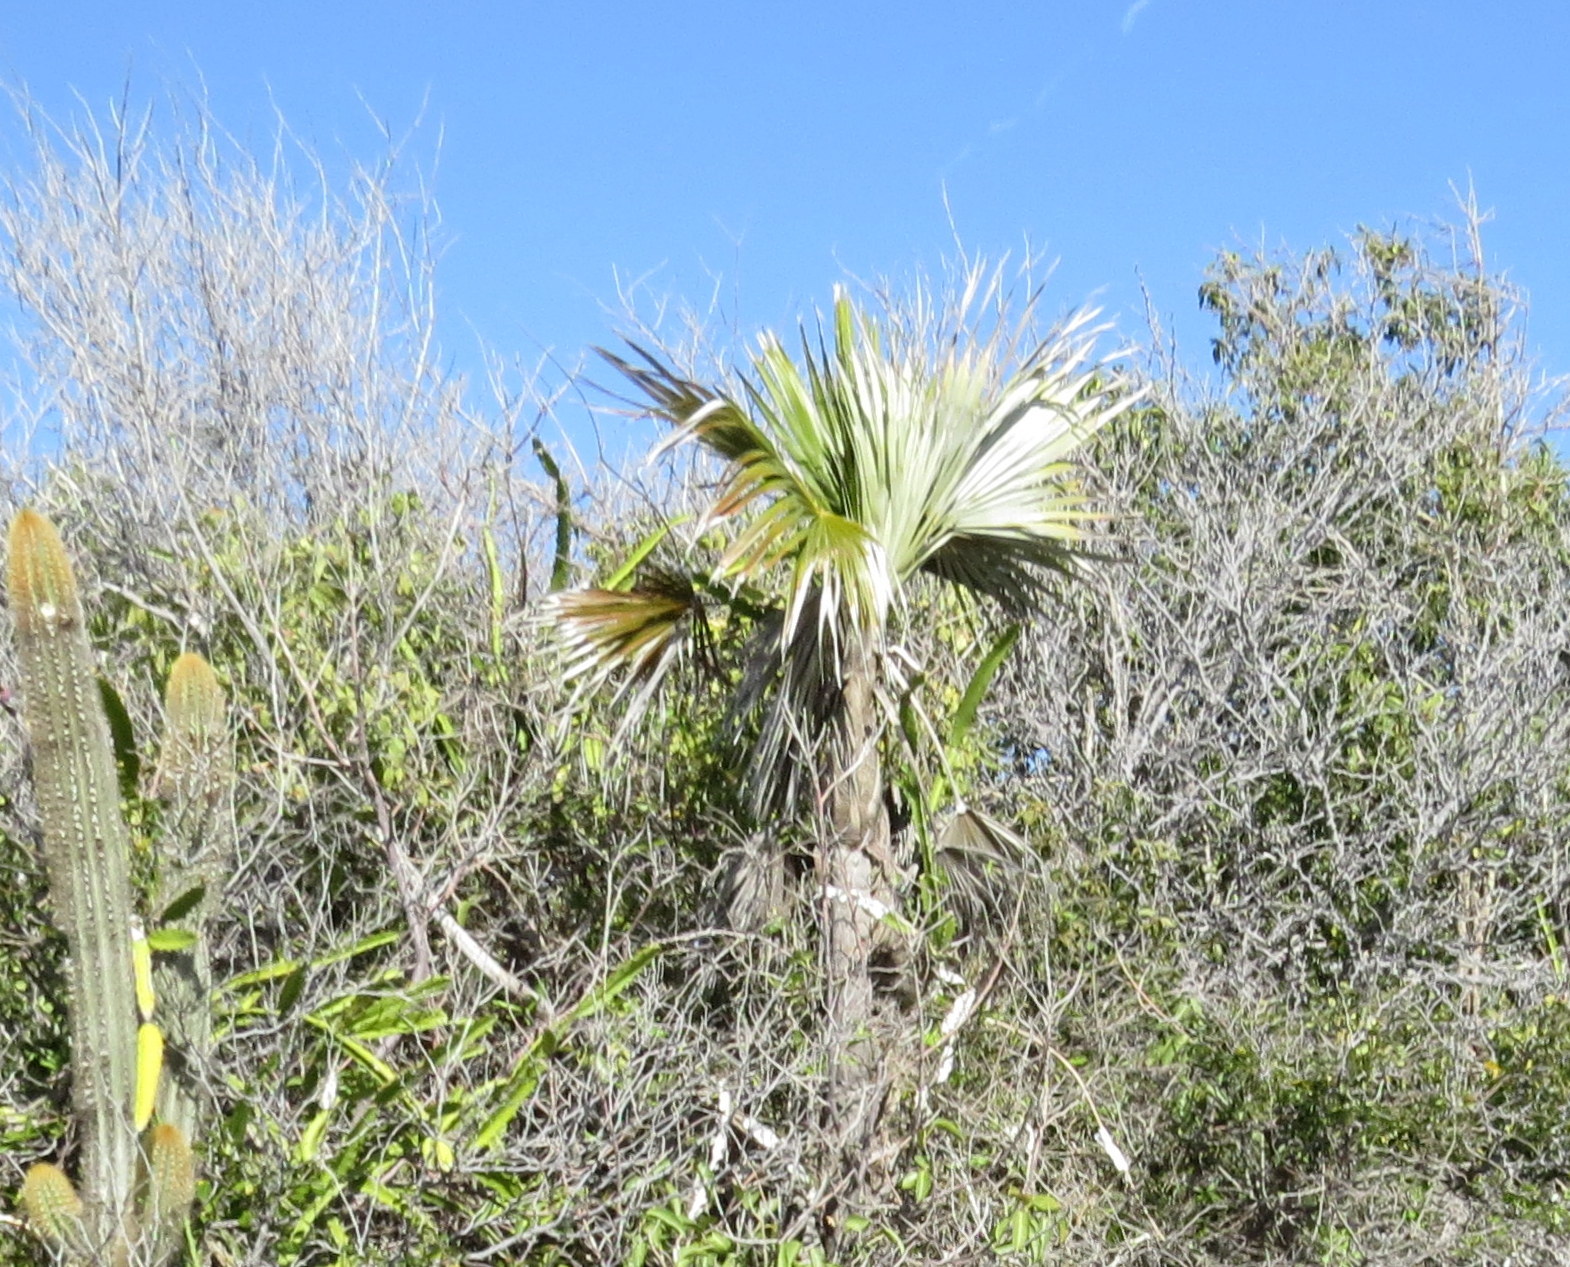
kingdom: Plantae
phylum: Tracheophyta
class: Liliopsida
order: Arecales
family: Arecaceae
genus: Coccothrinax
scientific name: Coccothrinax jamaicensis
